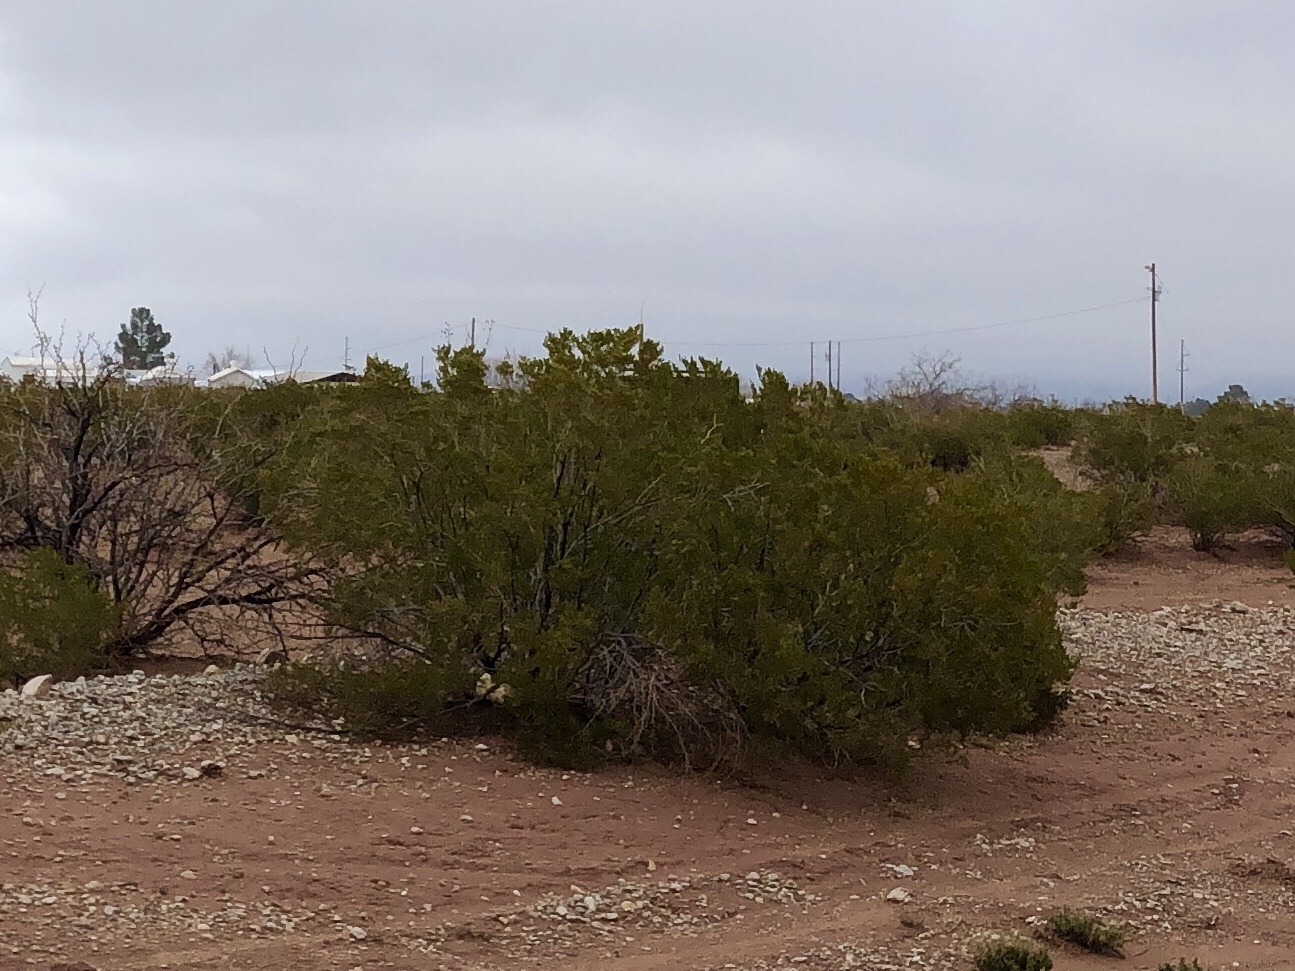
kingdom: Plantae
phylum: Tracheophyta
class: Magnoliopsida
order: Zygophyllales
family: Zygophyllaceae
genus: Larrea
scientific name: Larrea tridentata
